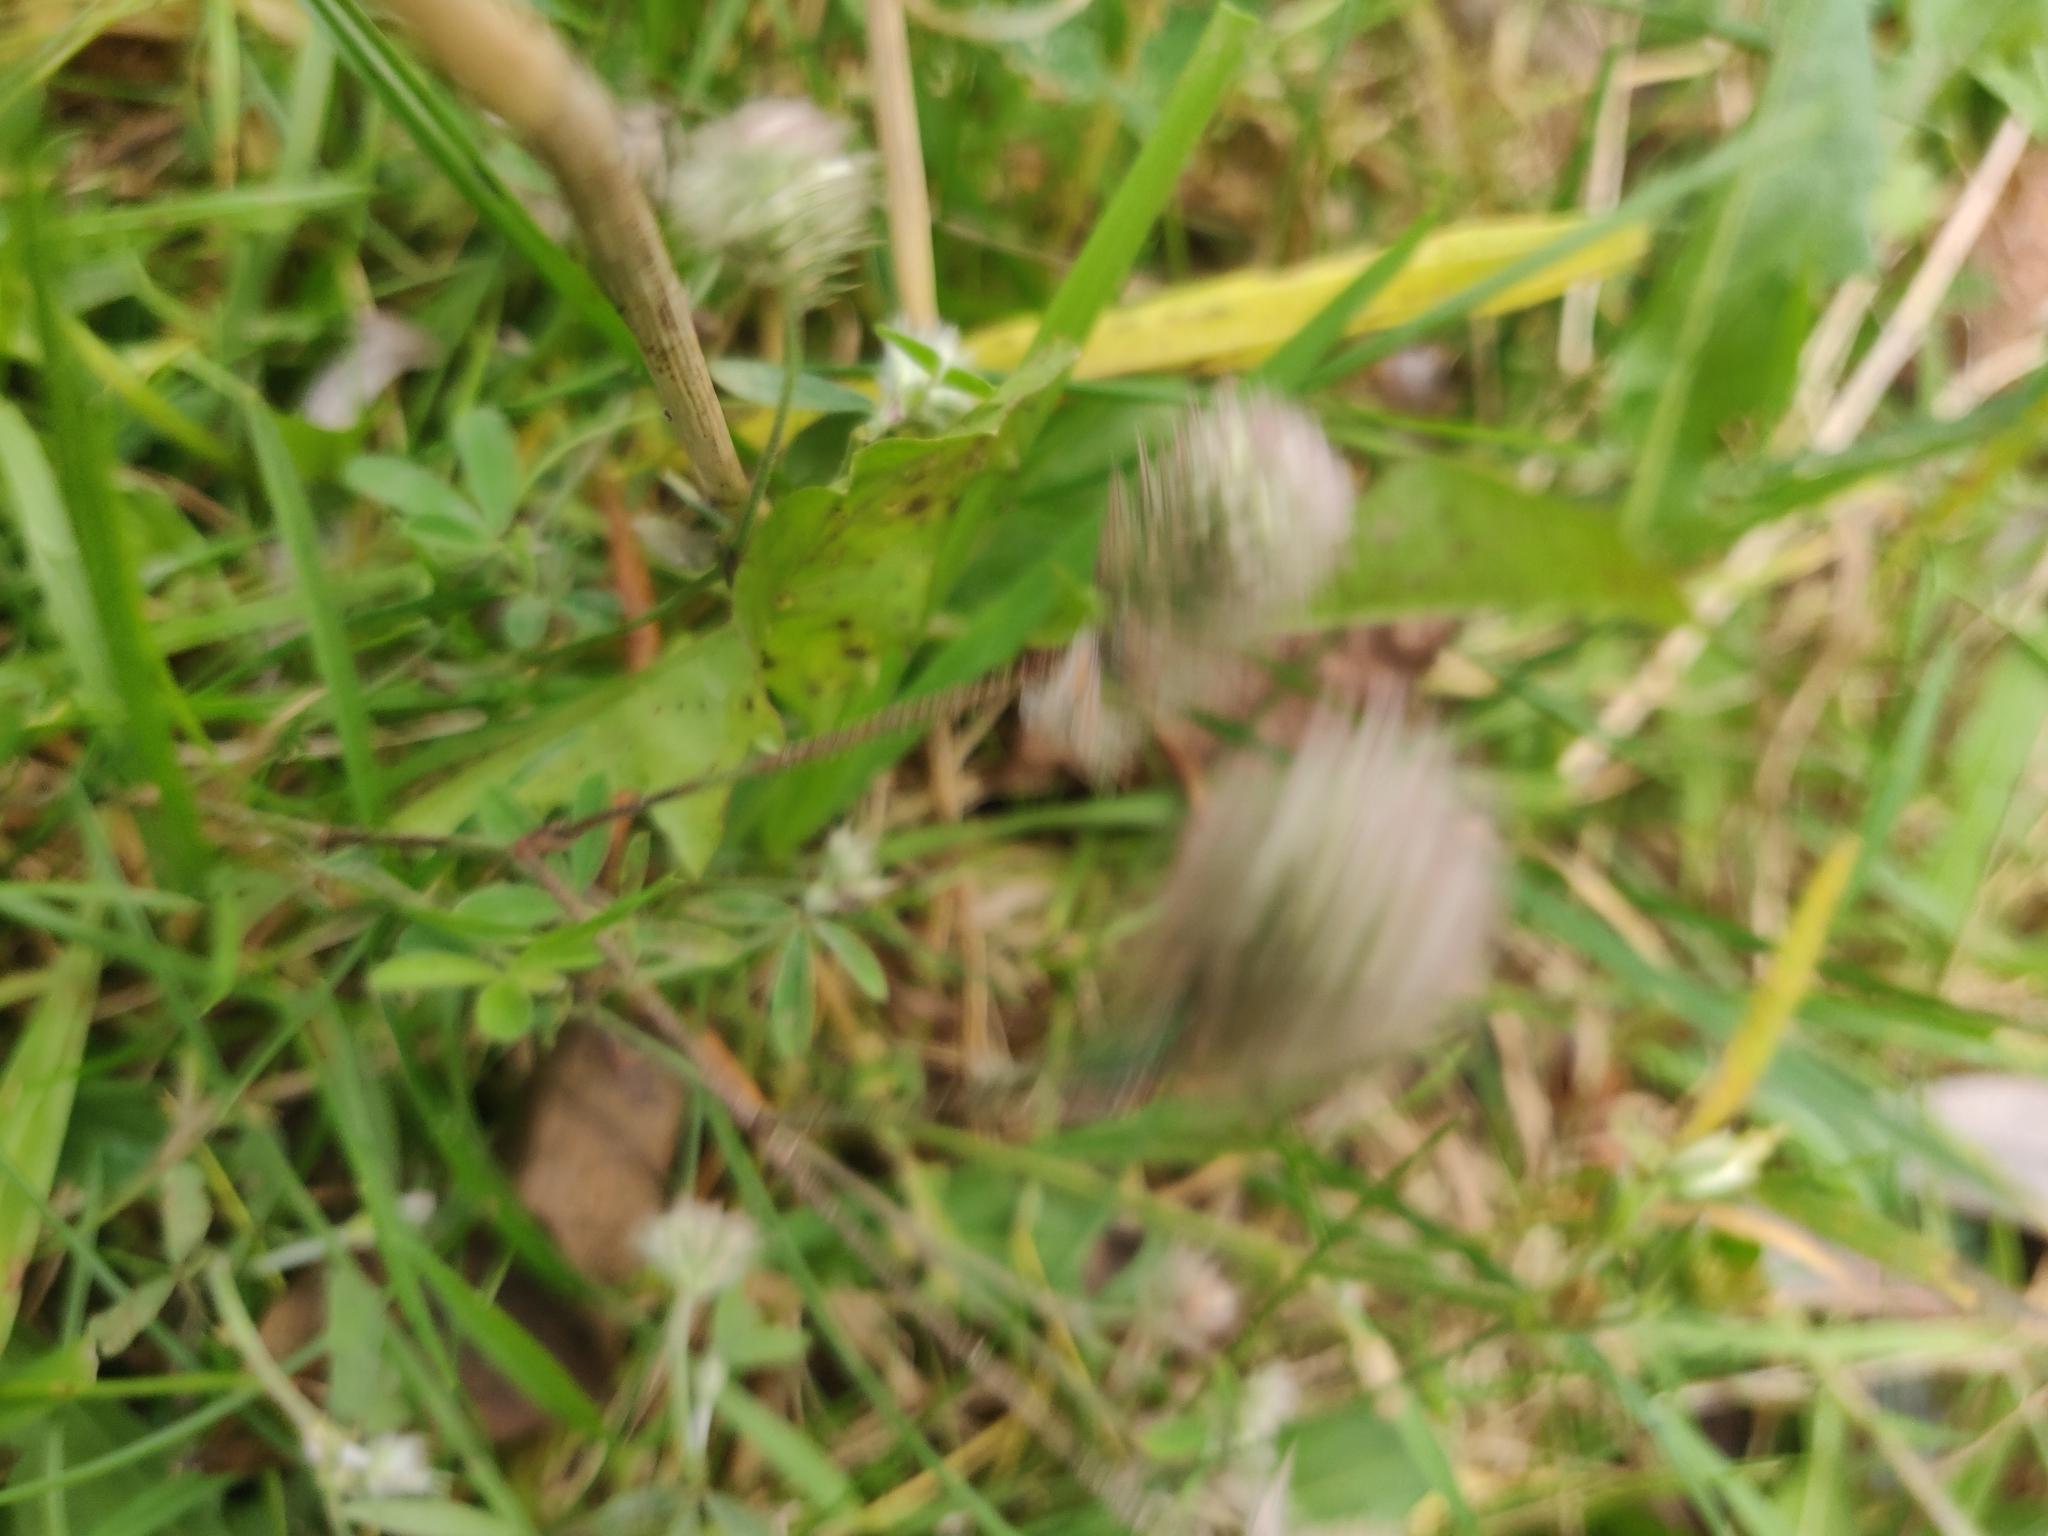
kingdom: Plantae
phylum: Tracheophyta
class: Magnoliopsida
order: Fabales
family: Fabaceae
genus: Trifolium
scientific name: Trifolium arvense
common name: Hare's-foot clover
